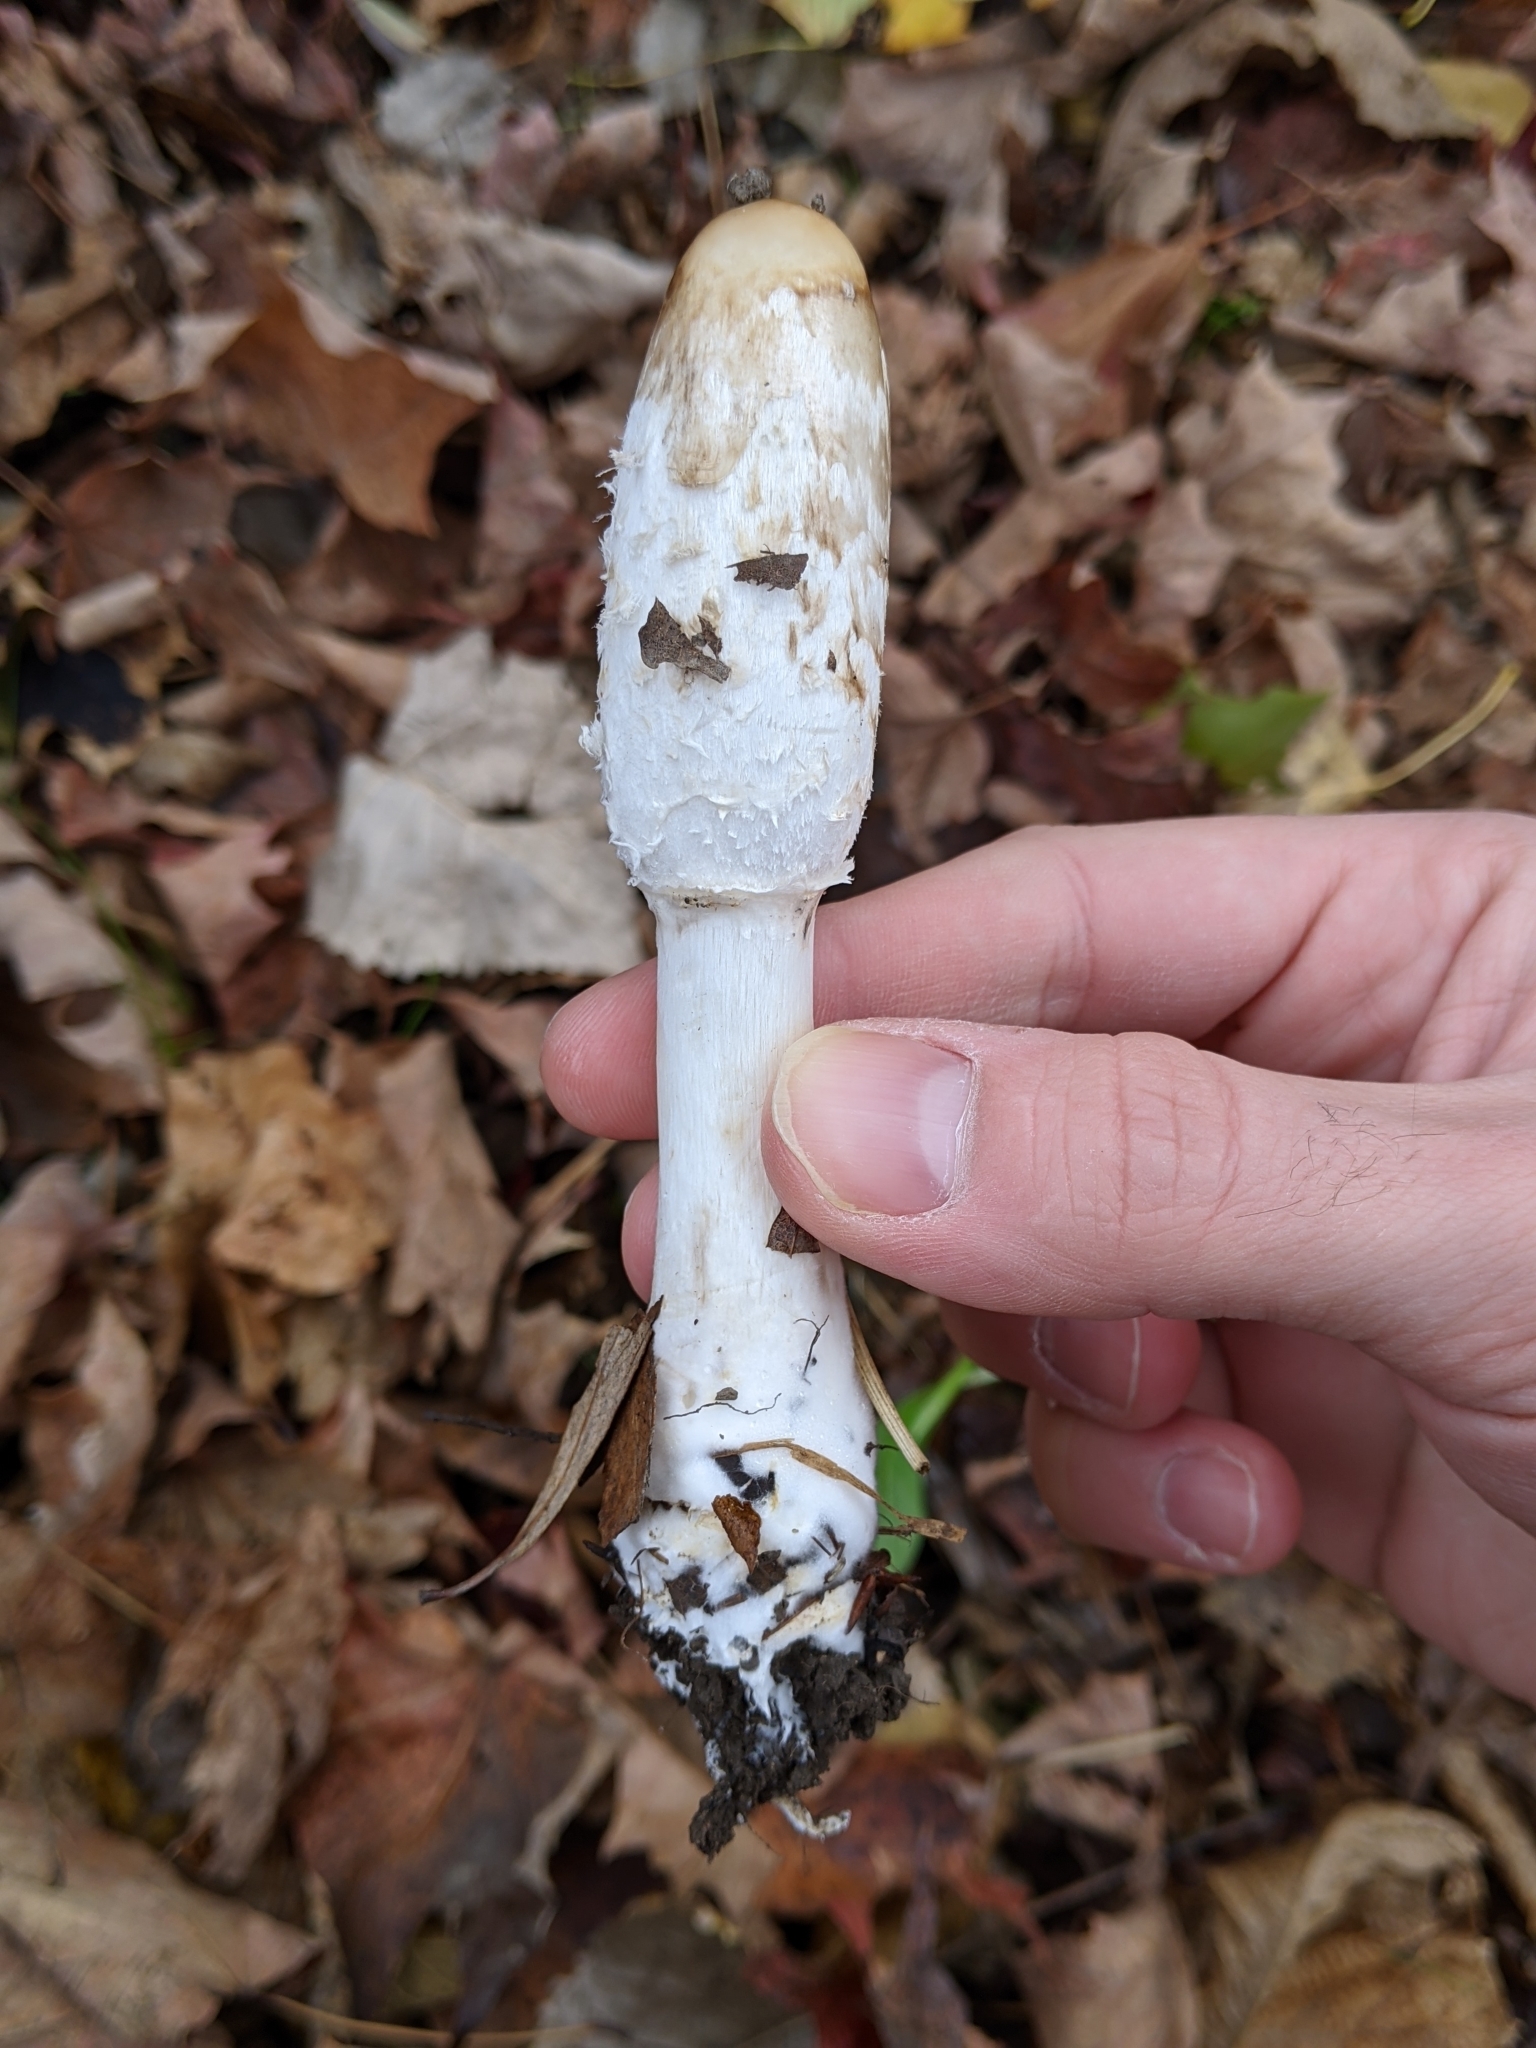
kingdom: Fungi
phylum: Basidiomycota
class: Agaricomycetes
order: Agaricales
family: Agaricaceae
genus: Coprinus
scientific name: Coprinus comatus
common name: Lawyer's wig
